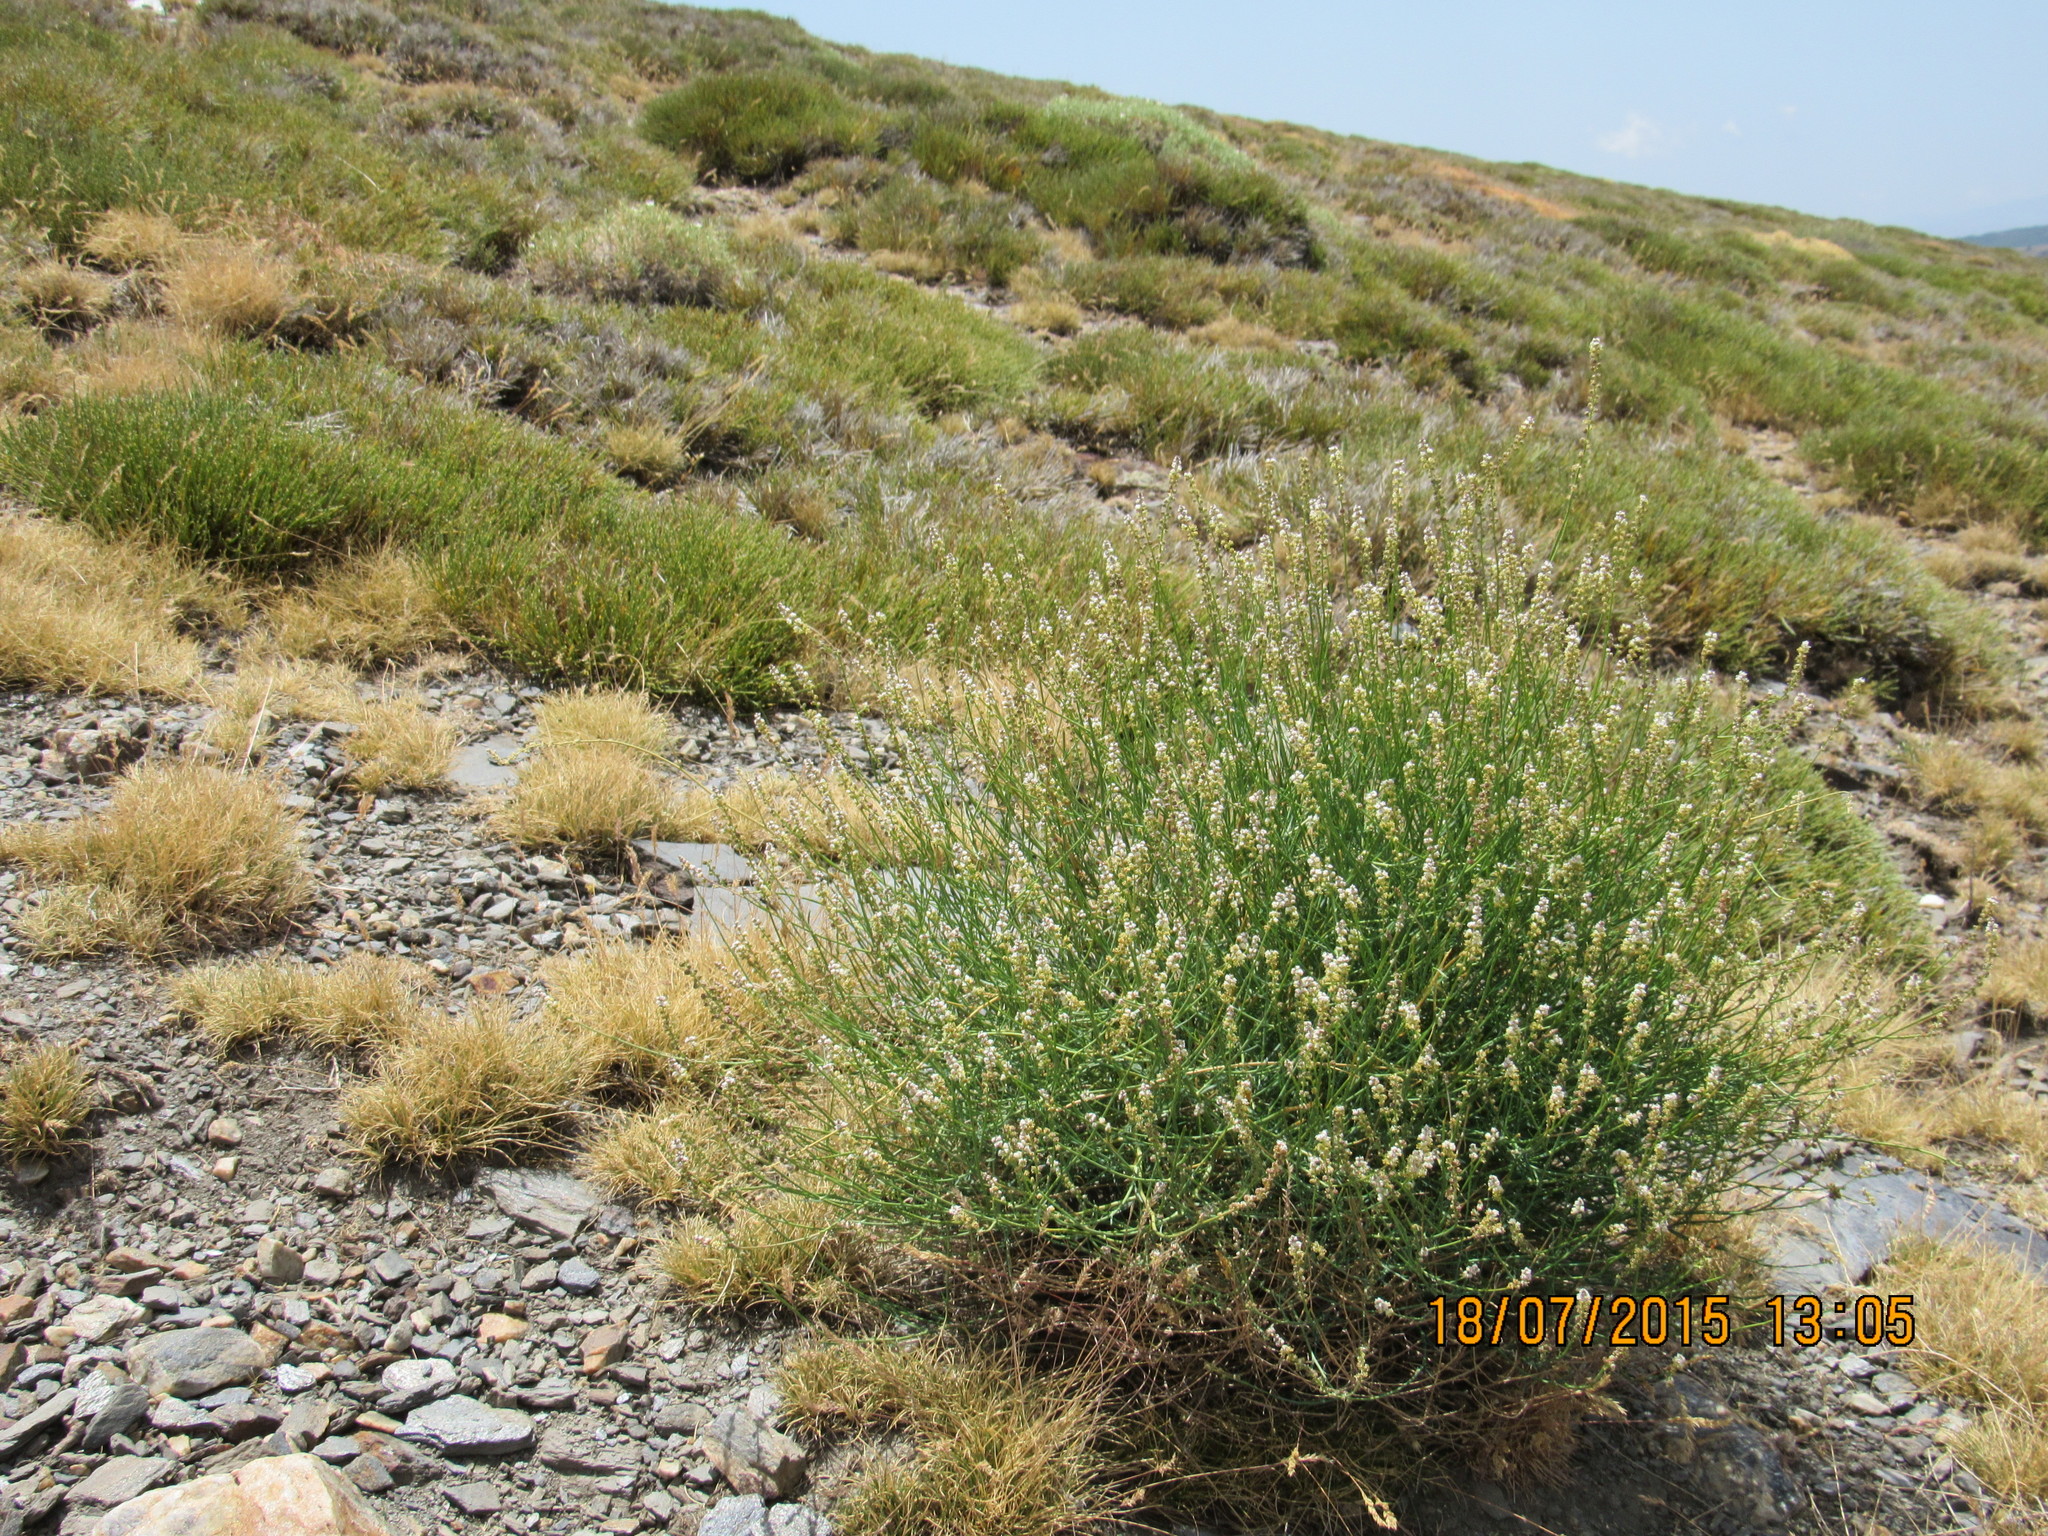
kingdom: Plantae
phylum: Tracheophyta
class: Magnoliopsida
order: Brassicales
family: Resedaceae
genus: Reseda
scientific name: Reseda complicata
